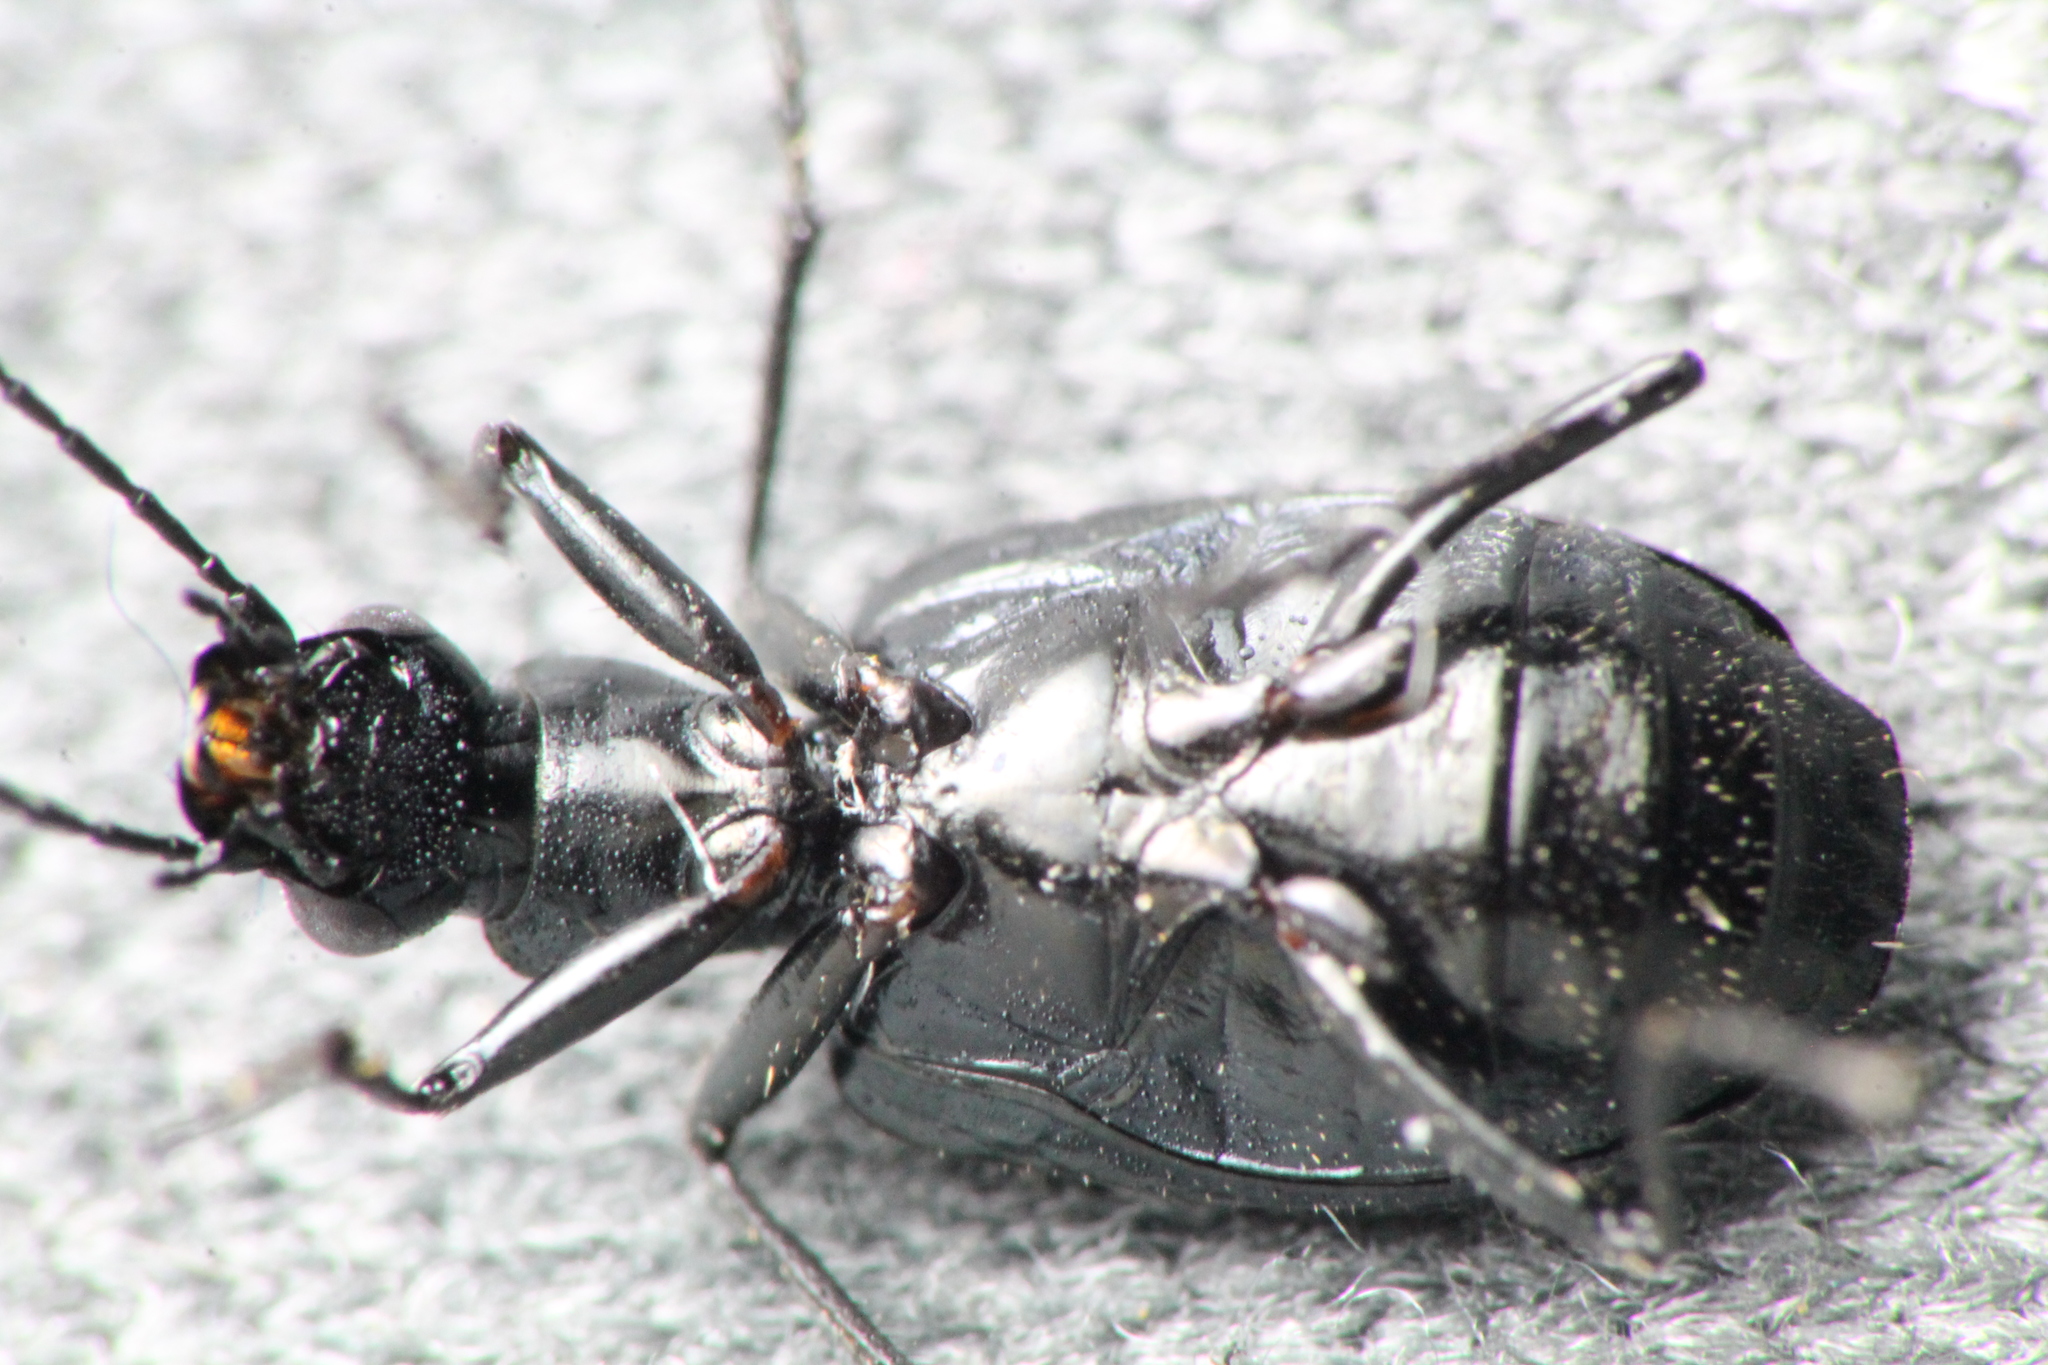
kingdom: Animalia
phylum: Arthropoda
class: Insecta
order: Coleoptera
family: Carabidae
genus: Actenonyx
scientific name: Actenonyx bembidioides
